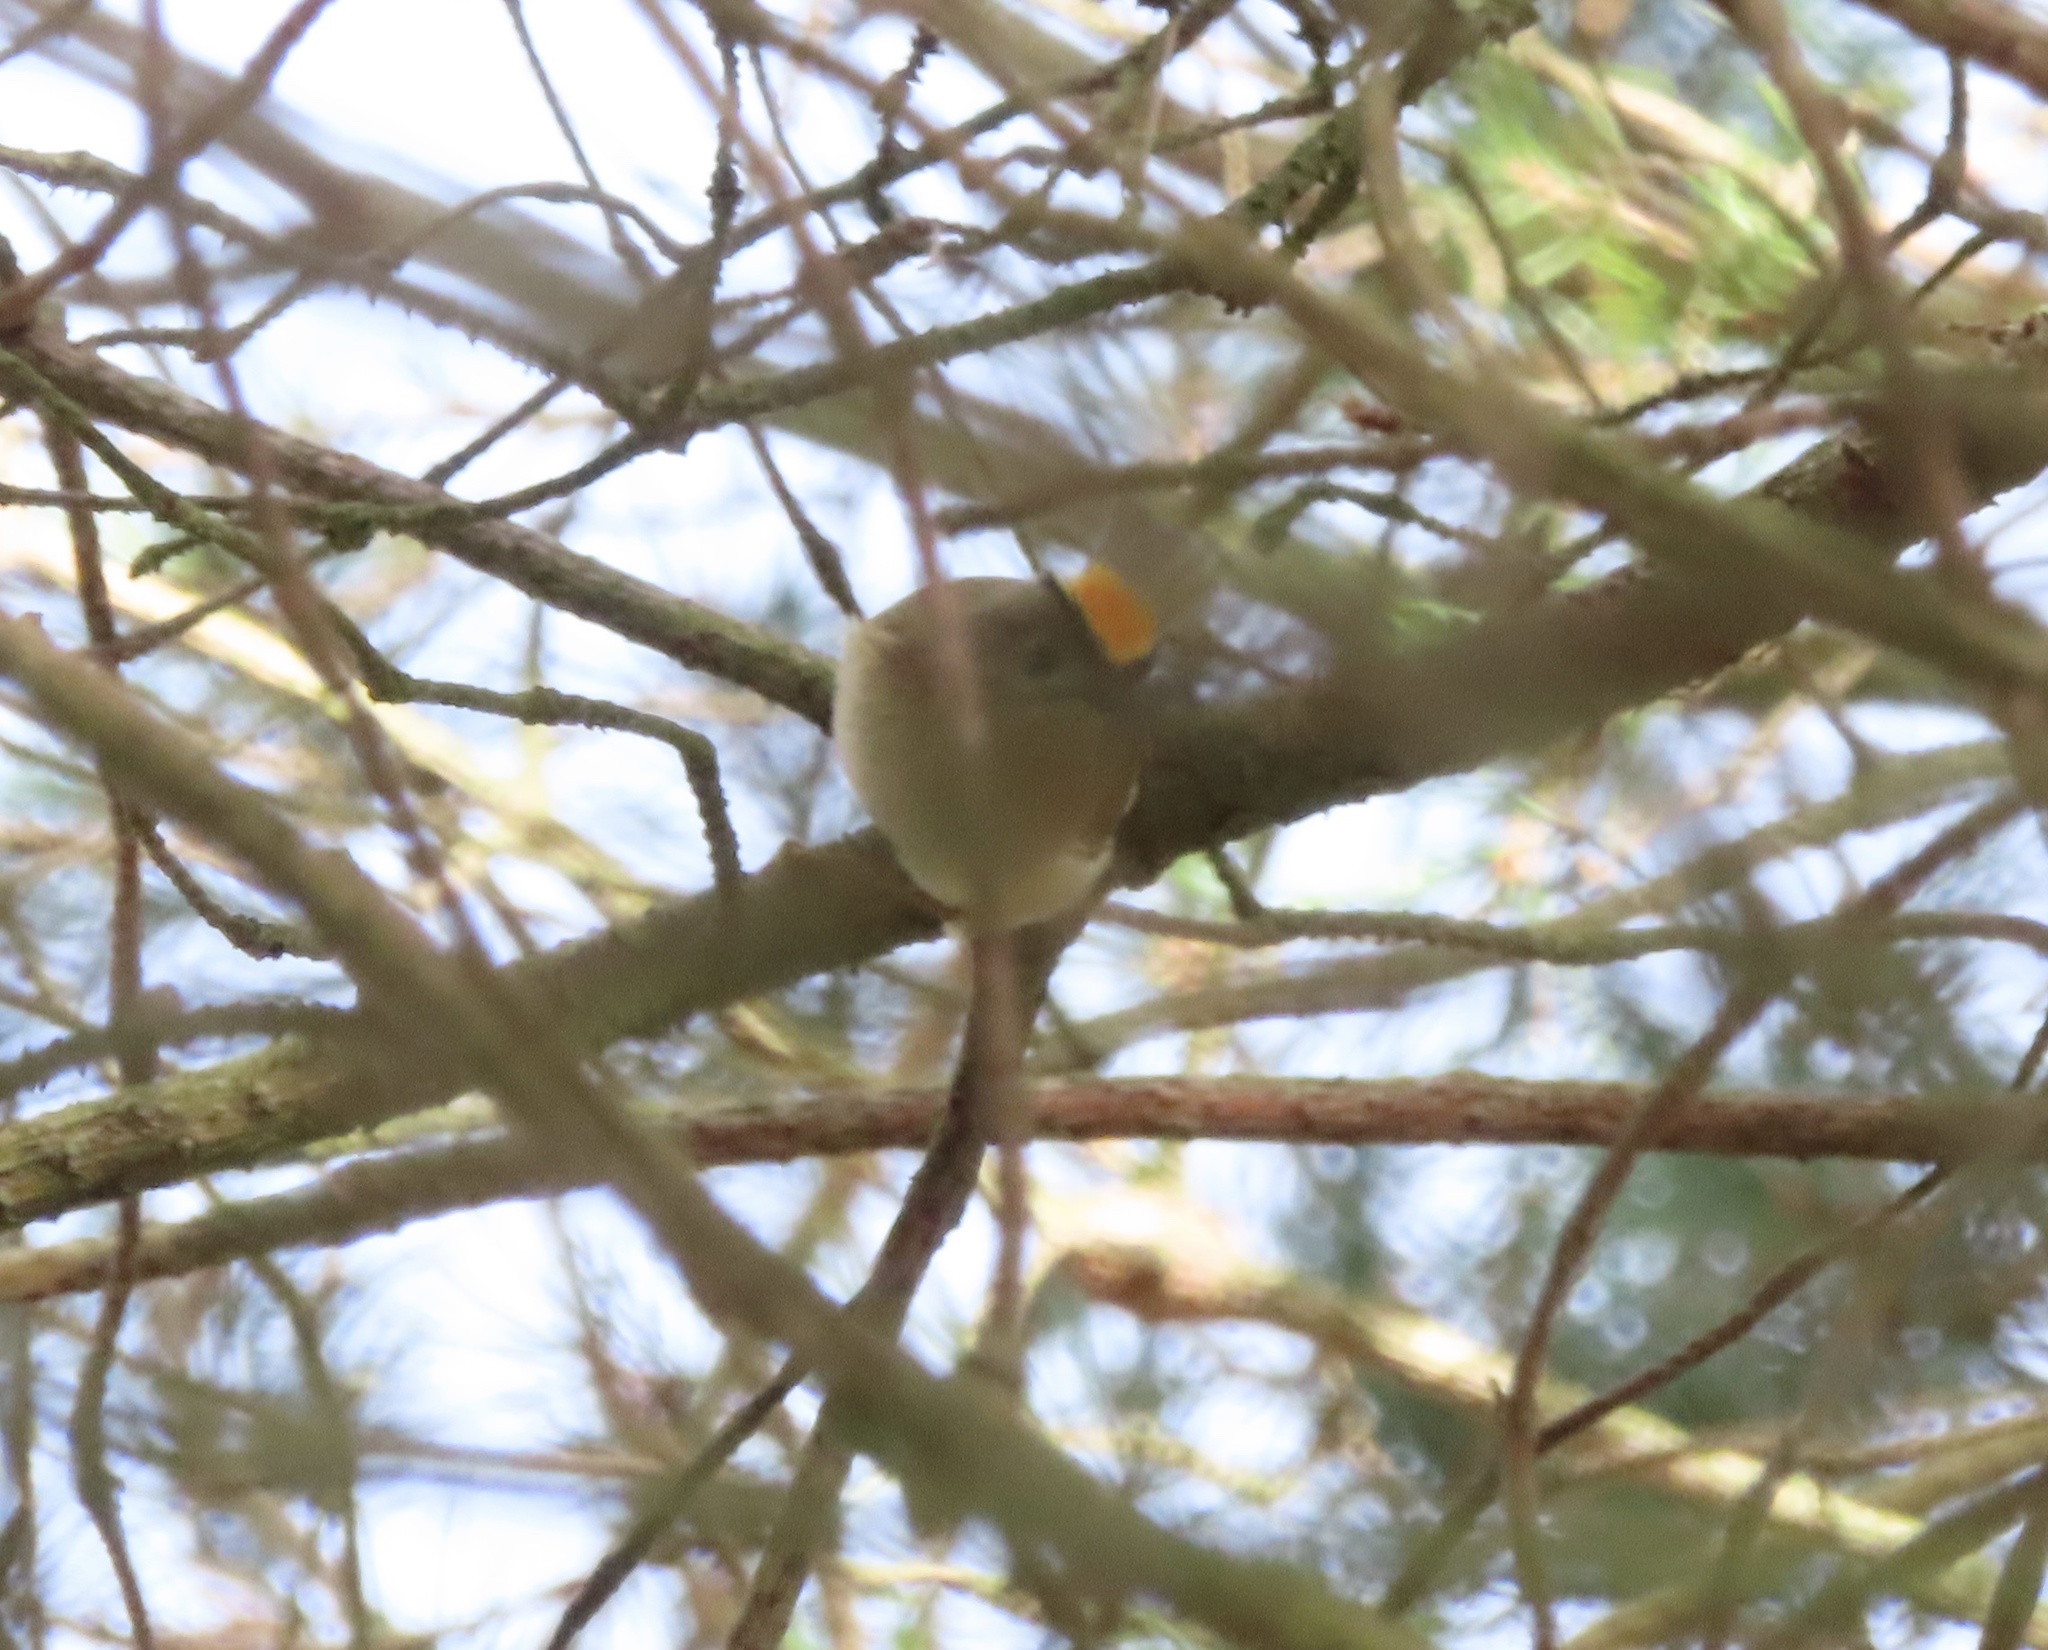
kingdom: Animalia
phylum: Chordata
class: Aves
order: Passeriformes
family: Regulidae
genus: Regulus
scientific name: Regulus regulus
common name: Goldcrest
